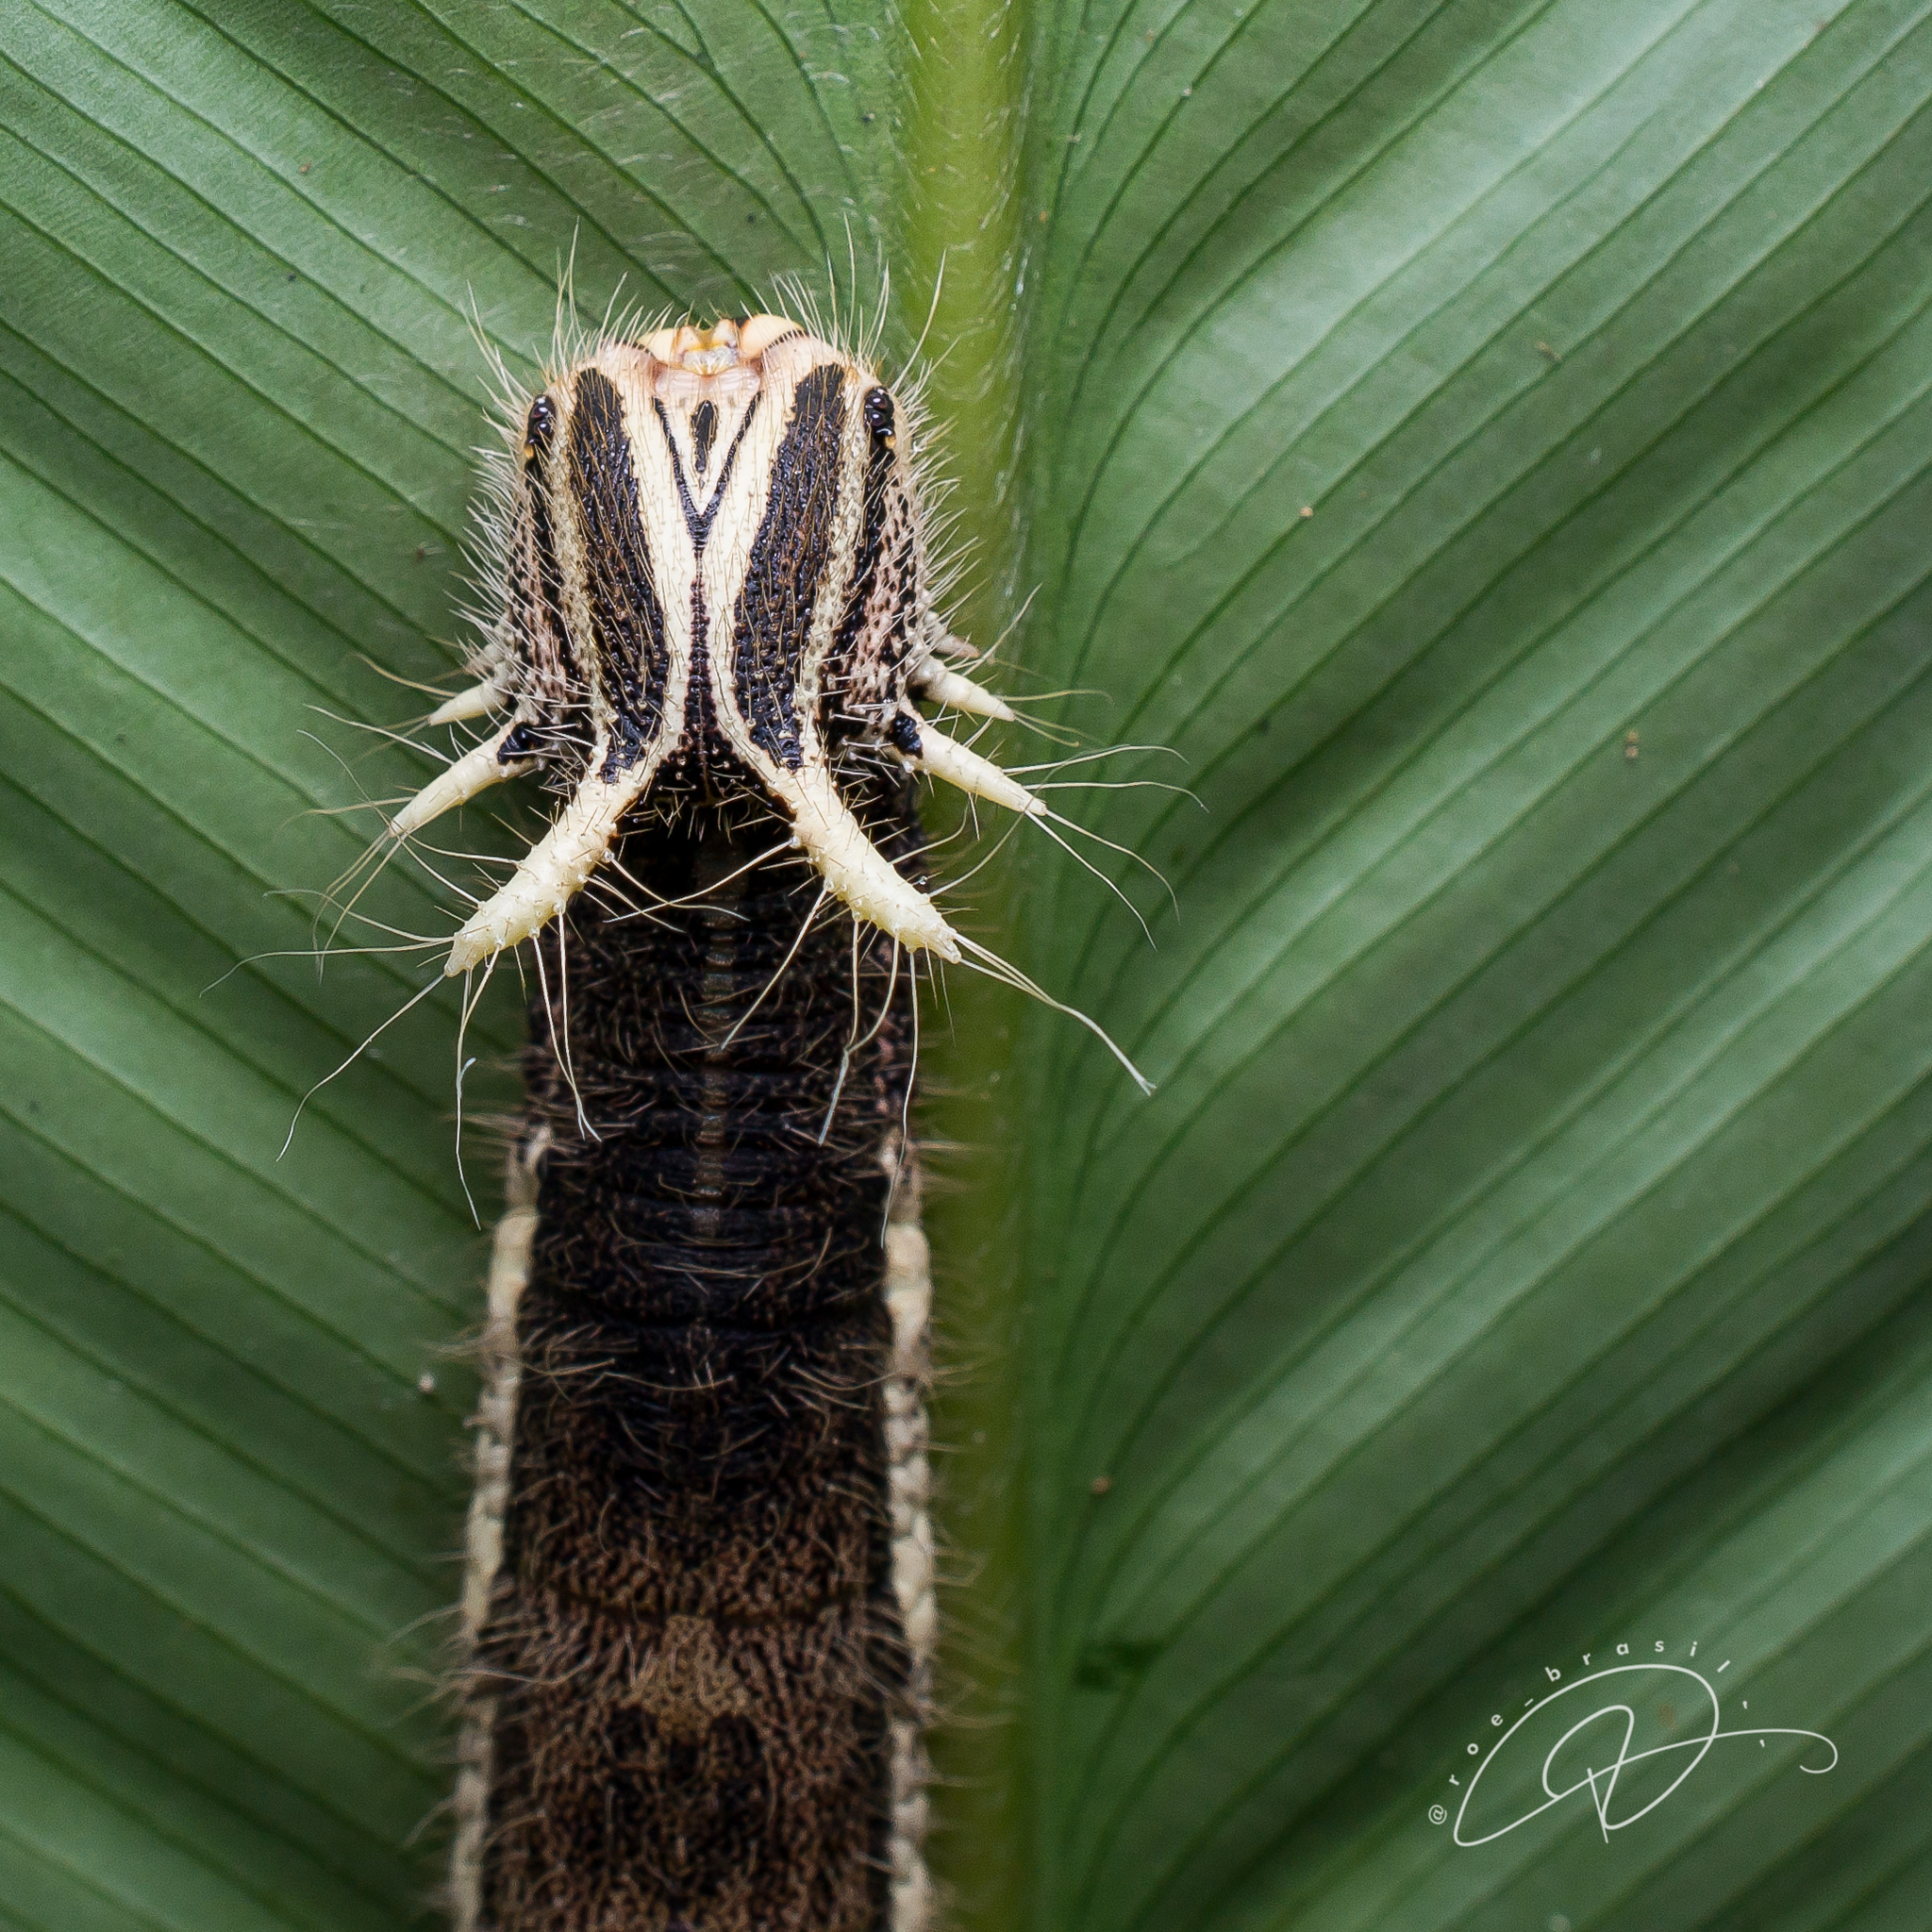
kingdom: Animalia
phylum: Arthropoda
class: Insecta
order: Lepidoptera
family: Nymphalidae
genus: Caligo
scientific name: Caligo beltrao
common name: Purple owl-butterfly
